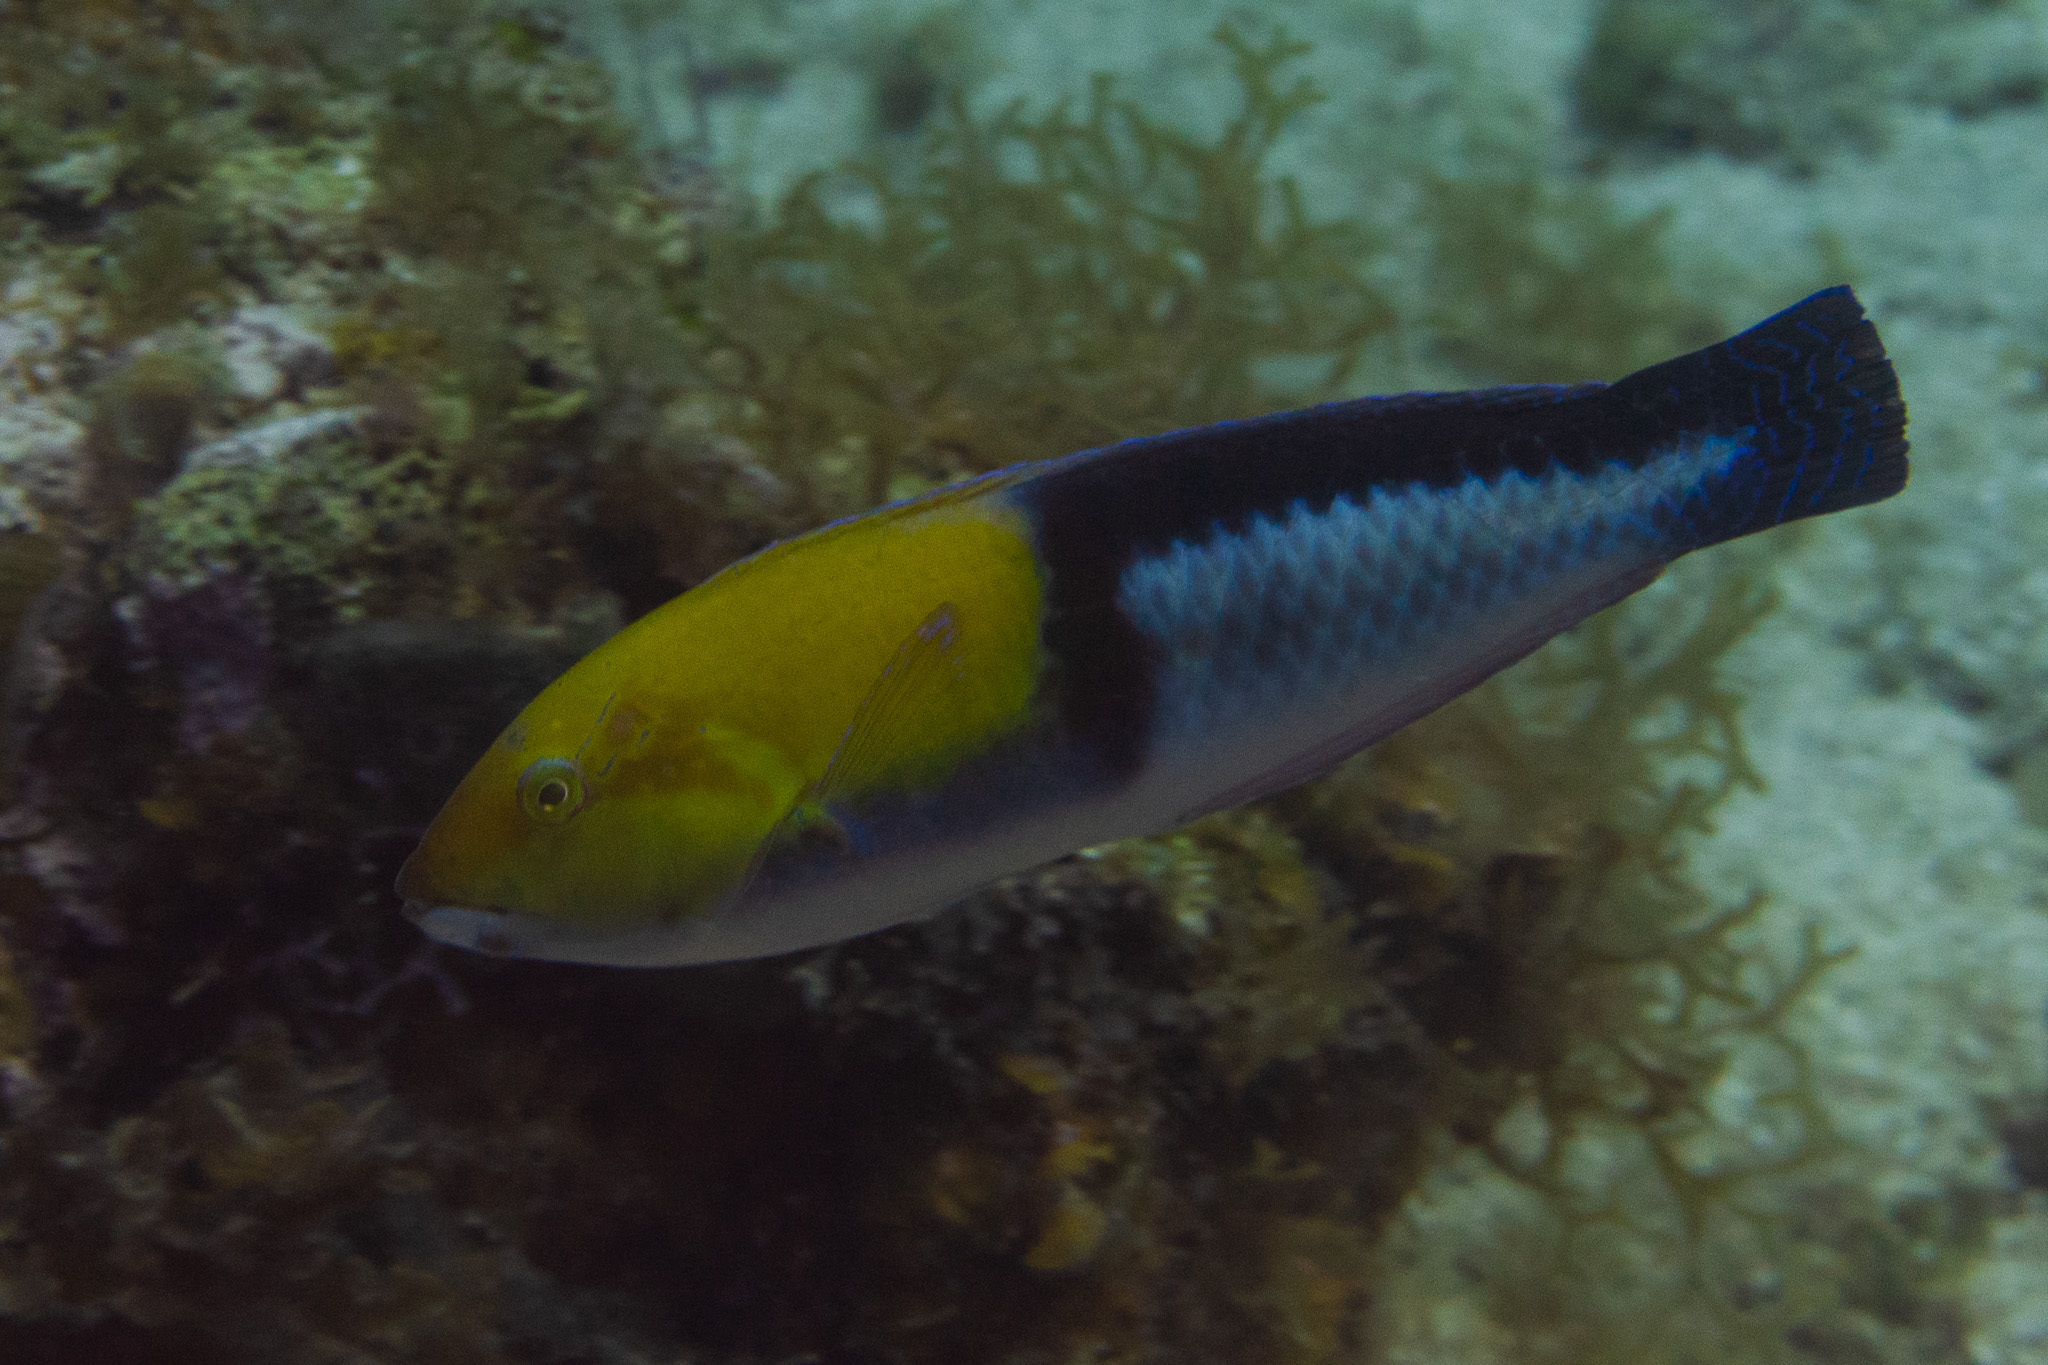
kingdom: Animalia
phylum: Chordata
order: Perciformes
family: Labridae
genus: Halichoeres
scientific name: Halichoeres garnoti
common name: Yellowhead wrasse
